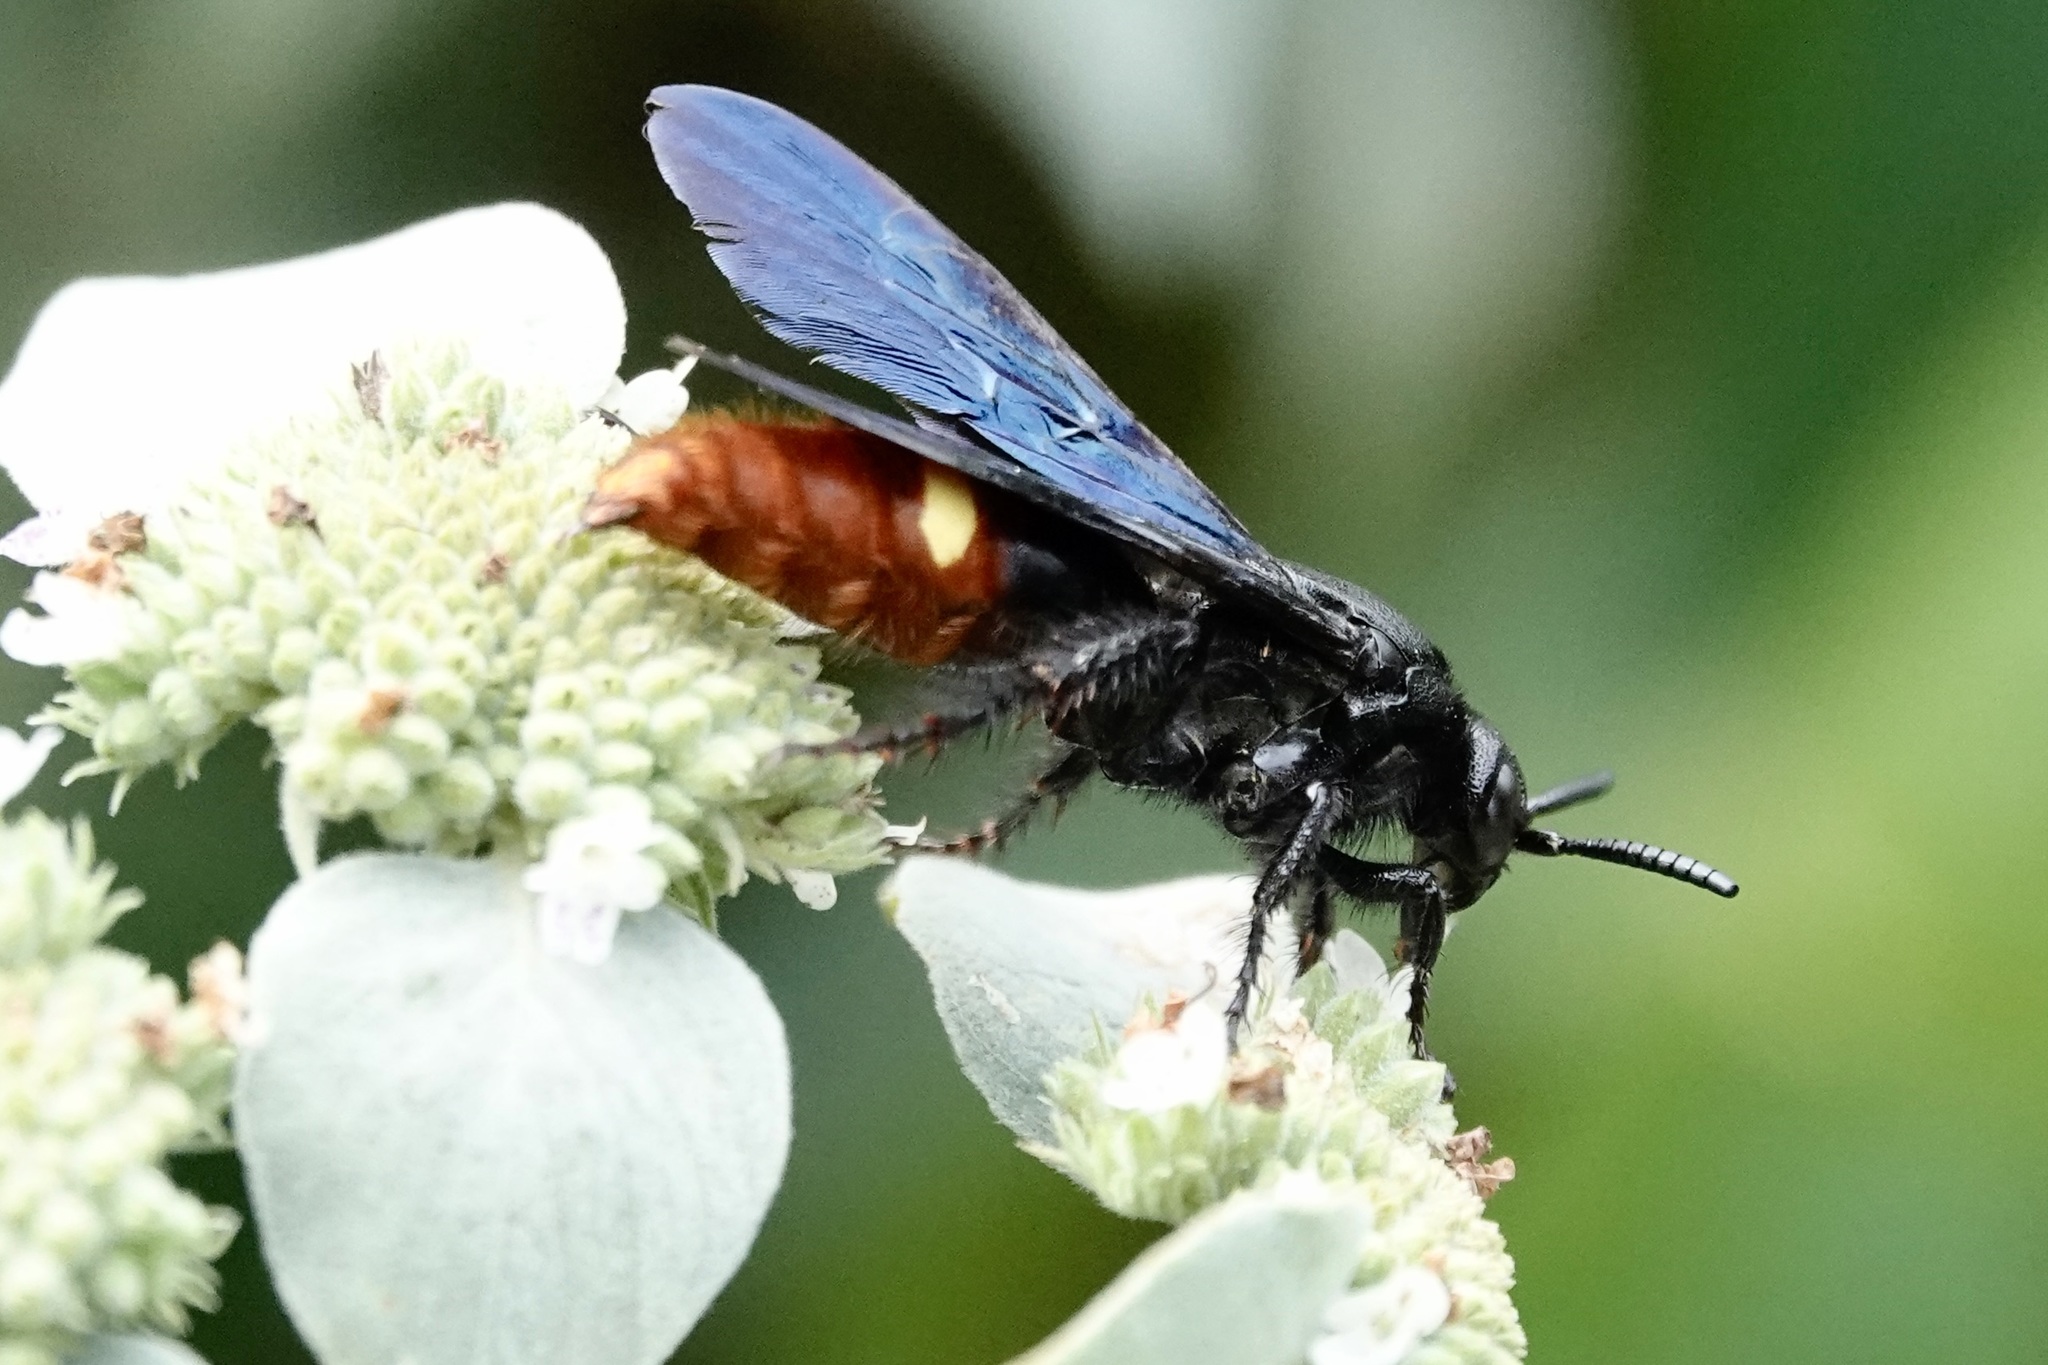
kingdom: Animalia
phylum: Arthropoda
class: Insecta
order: Hymenoptera
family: Scoliidae
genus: Scolia
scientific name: Scolia dubia
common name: Blue-winged scoliid wasp
